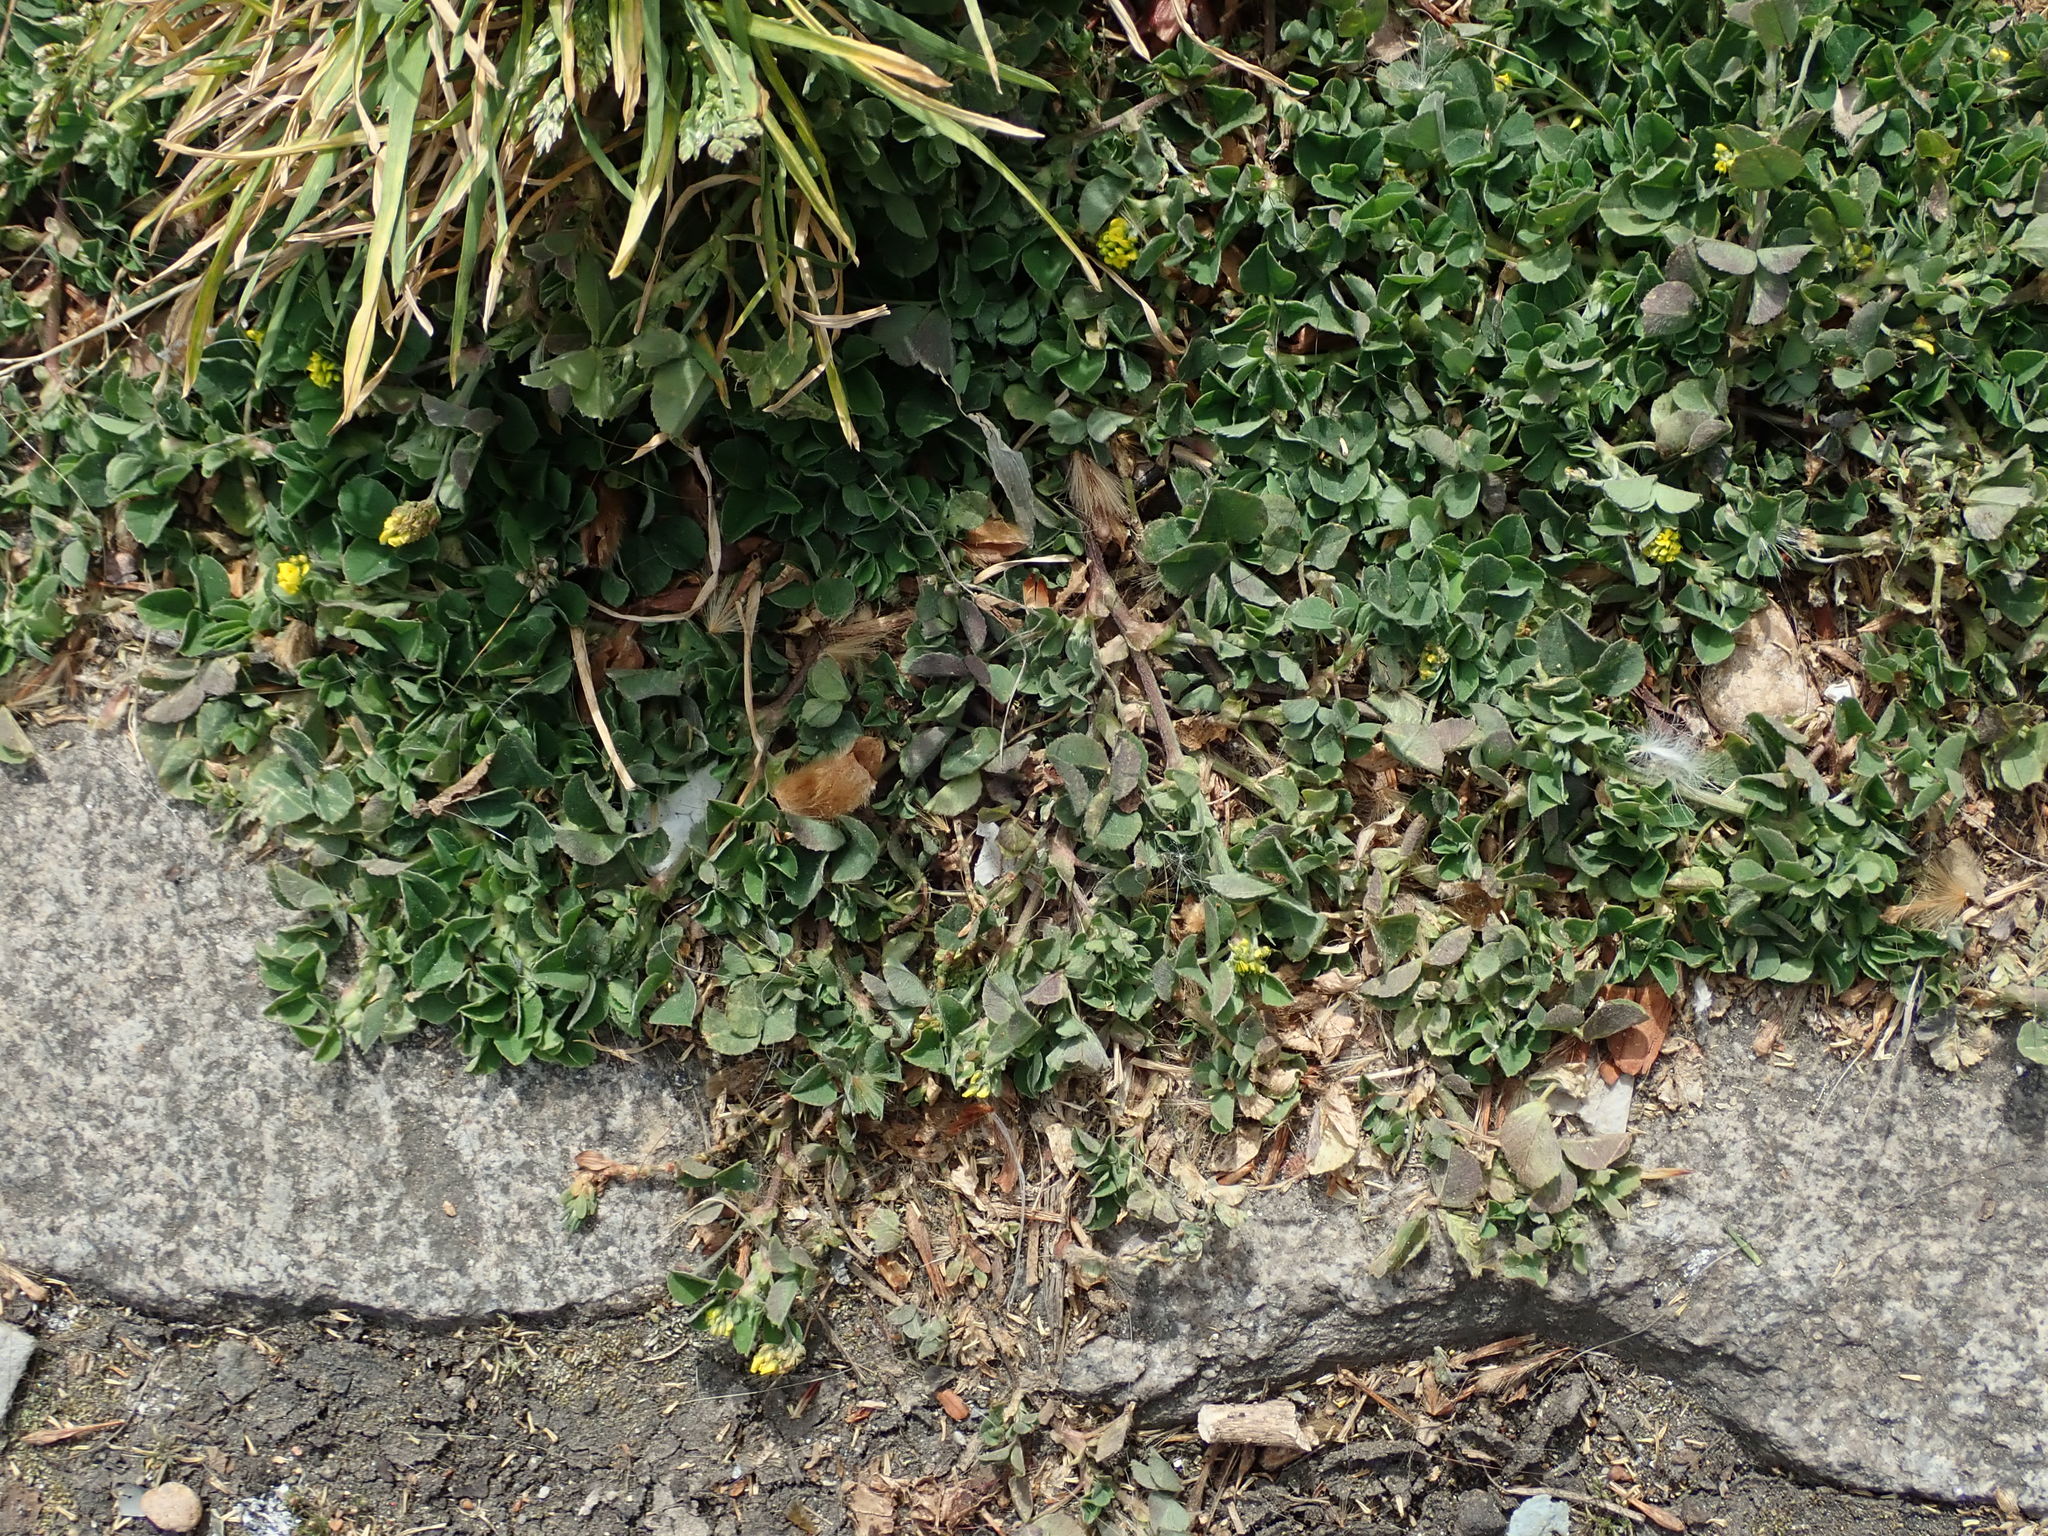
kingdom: Plantae
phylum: Tracheophyta
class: Magnoliopsida
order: Fabales
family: Fabaceae
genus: Medicago
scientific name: Medicago lupulina
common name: Black medick
